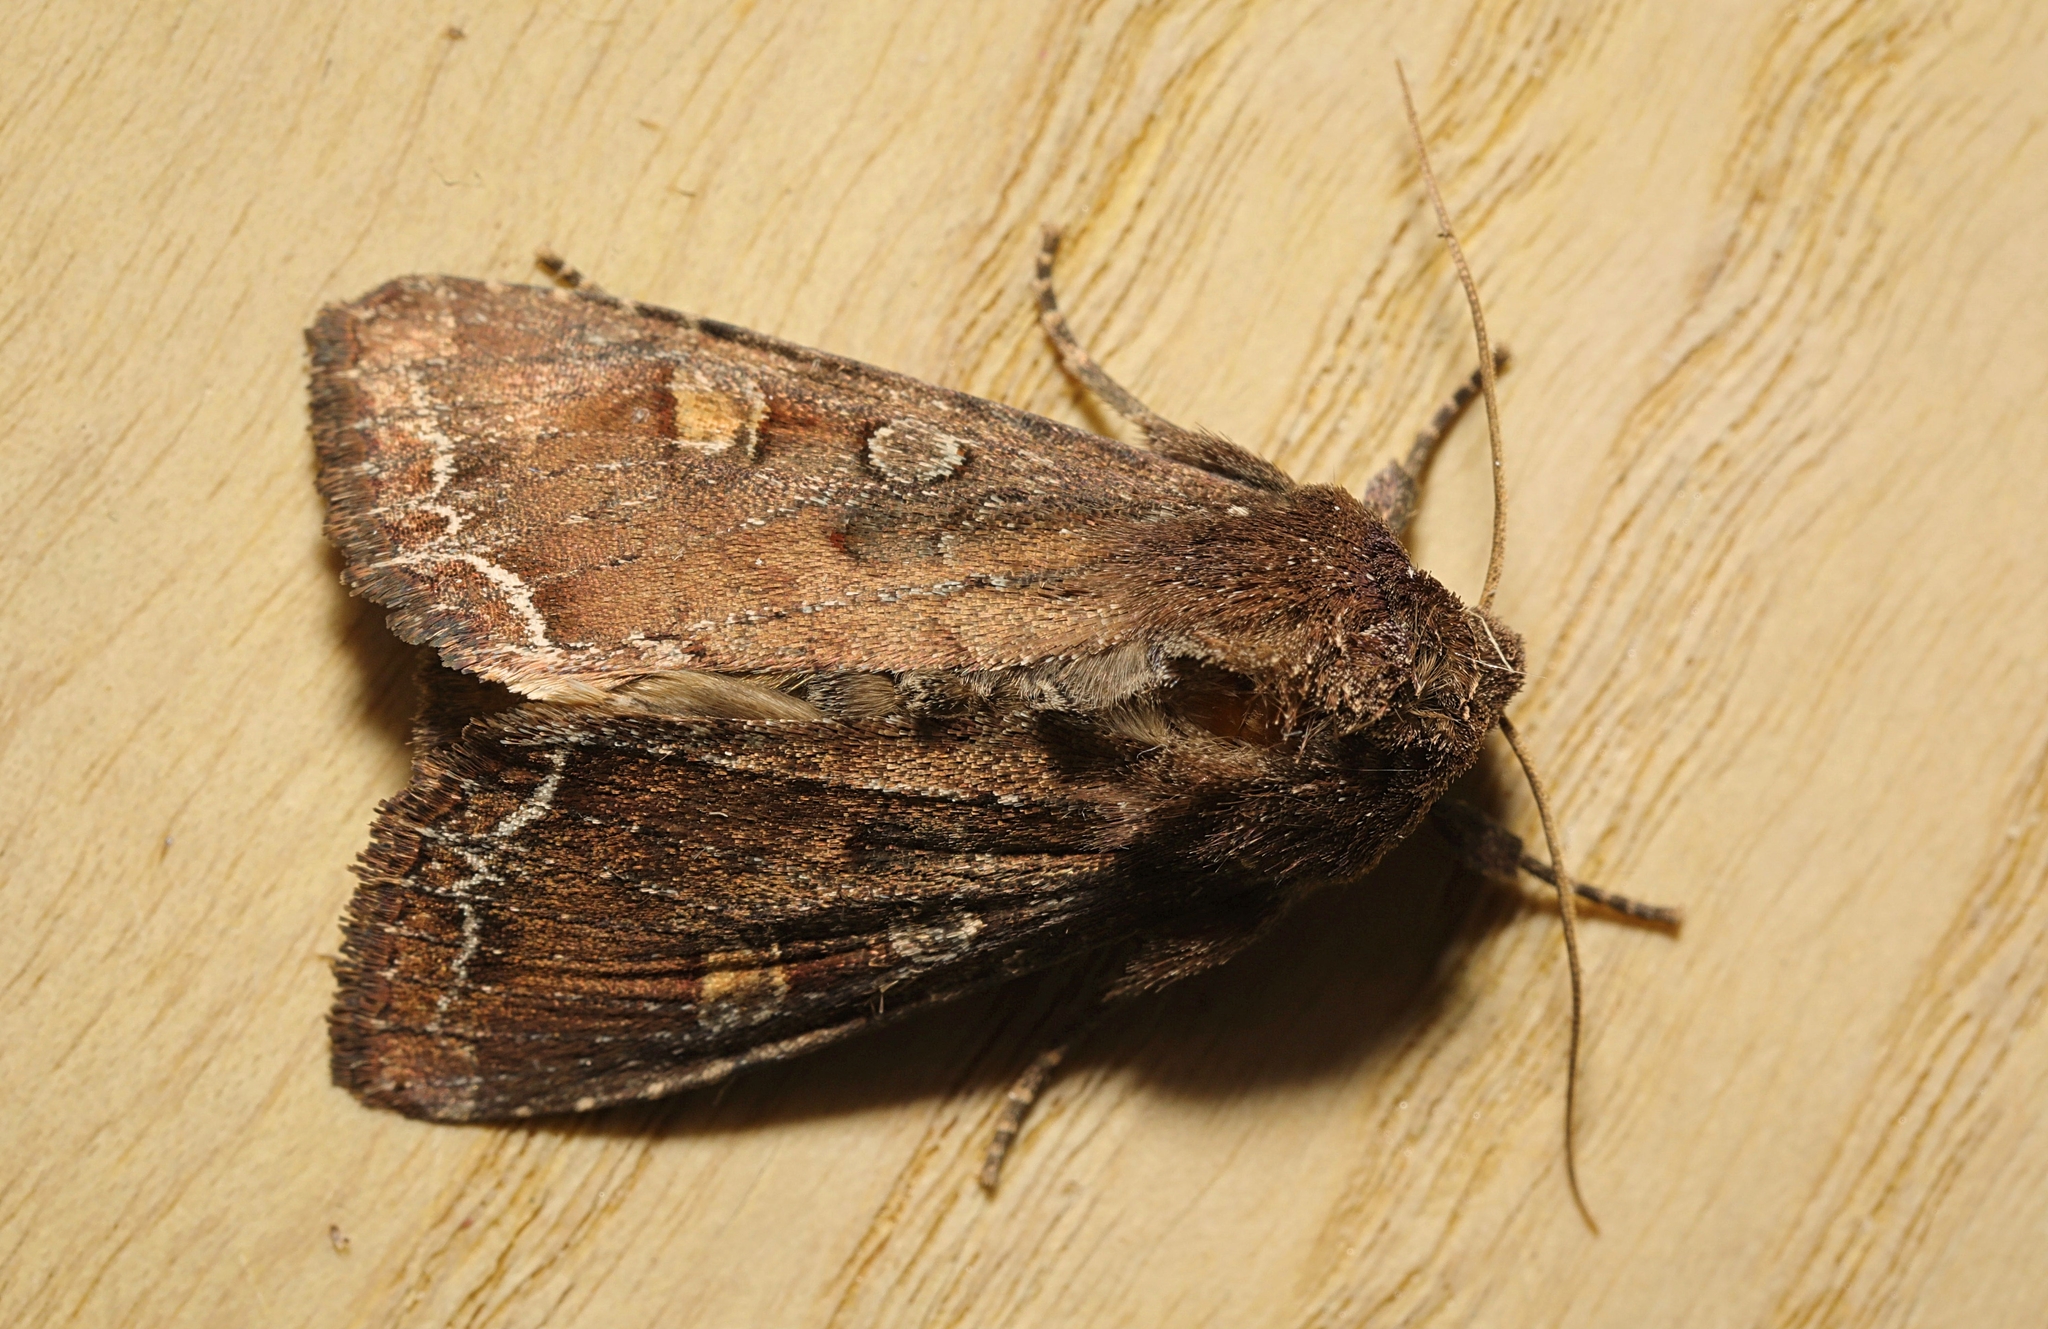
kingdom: Animalia
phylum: Arthropoda
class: Insecta
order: Lepidoptera
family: Noctuidae
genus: Lacanobia
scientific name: Lacanobia oleracea
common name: Bright-line brown-eye
